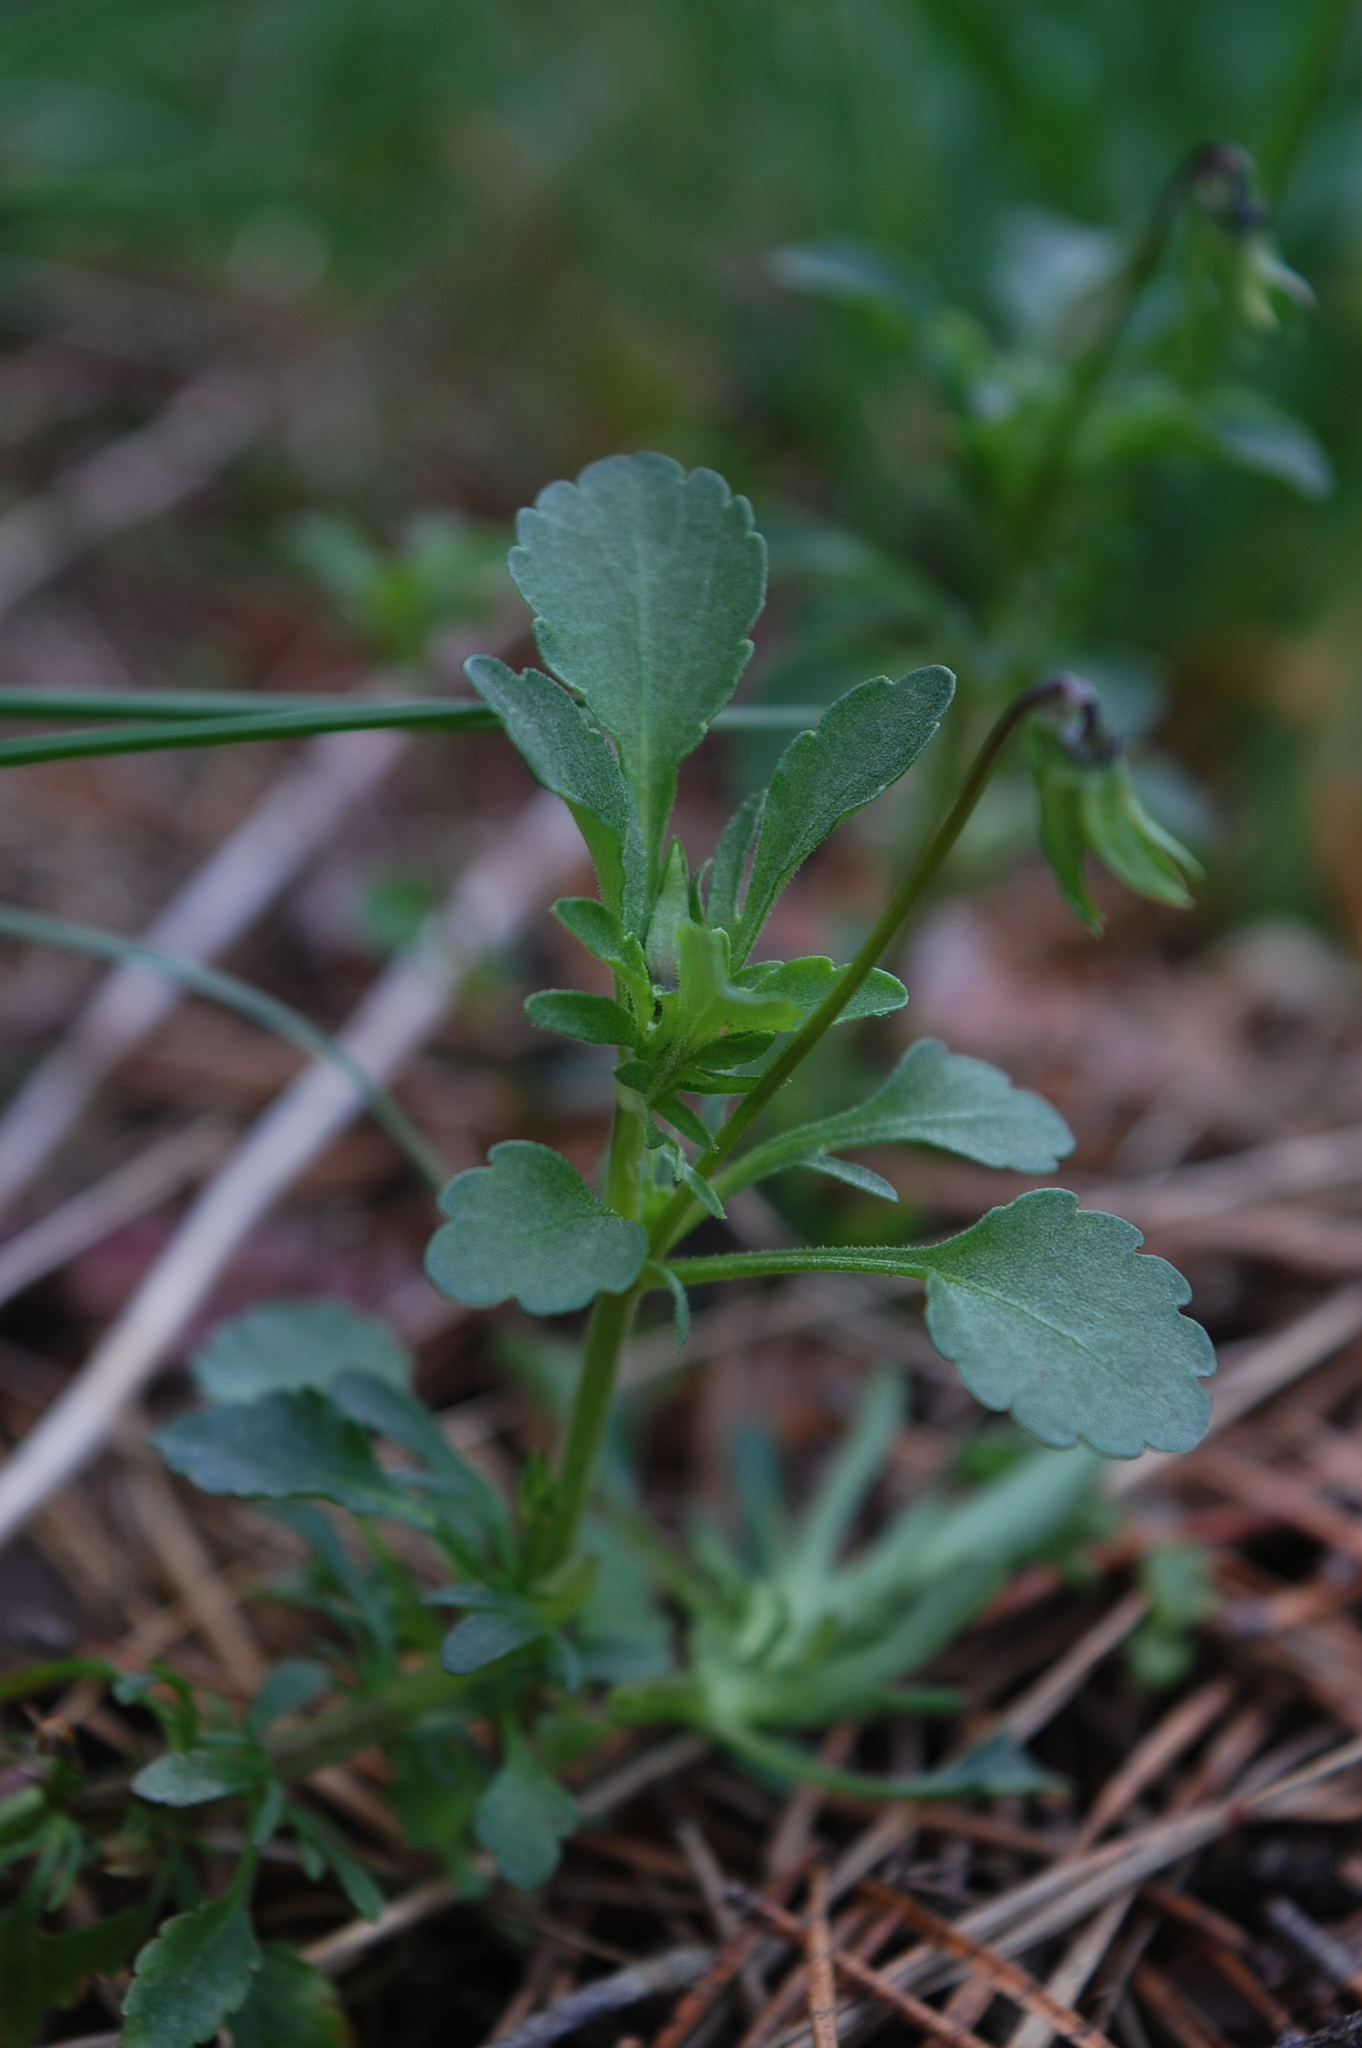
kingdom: Plantae
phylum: Tracheophyta
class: Magnoliopsida
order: Malpighiales
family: Violaceae
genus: Viola
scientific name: Viola arvensis
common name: Field pansy
